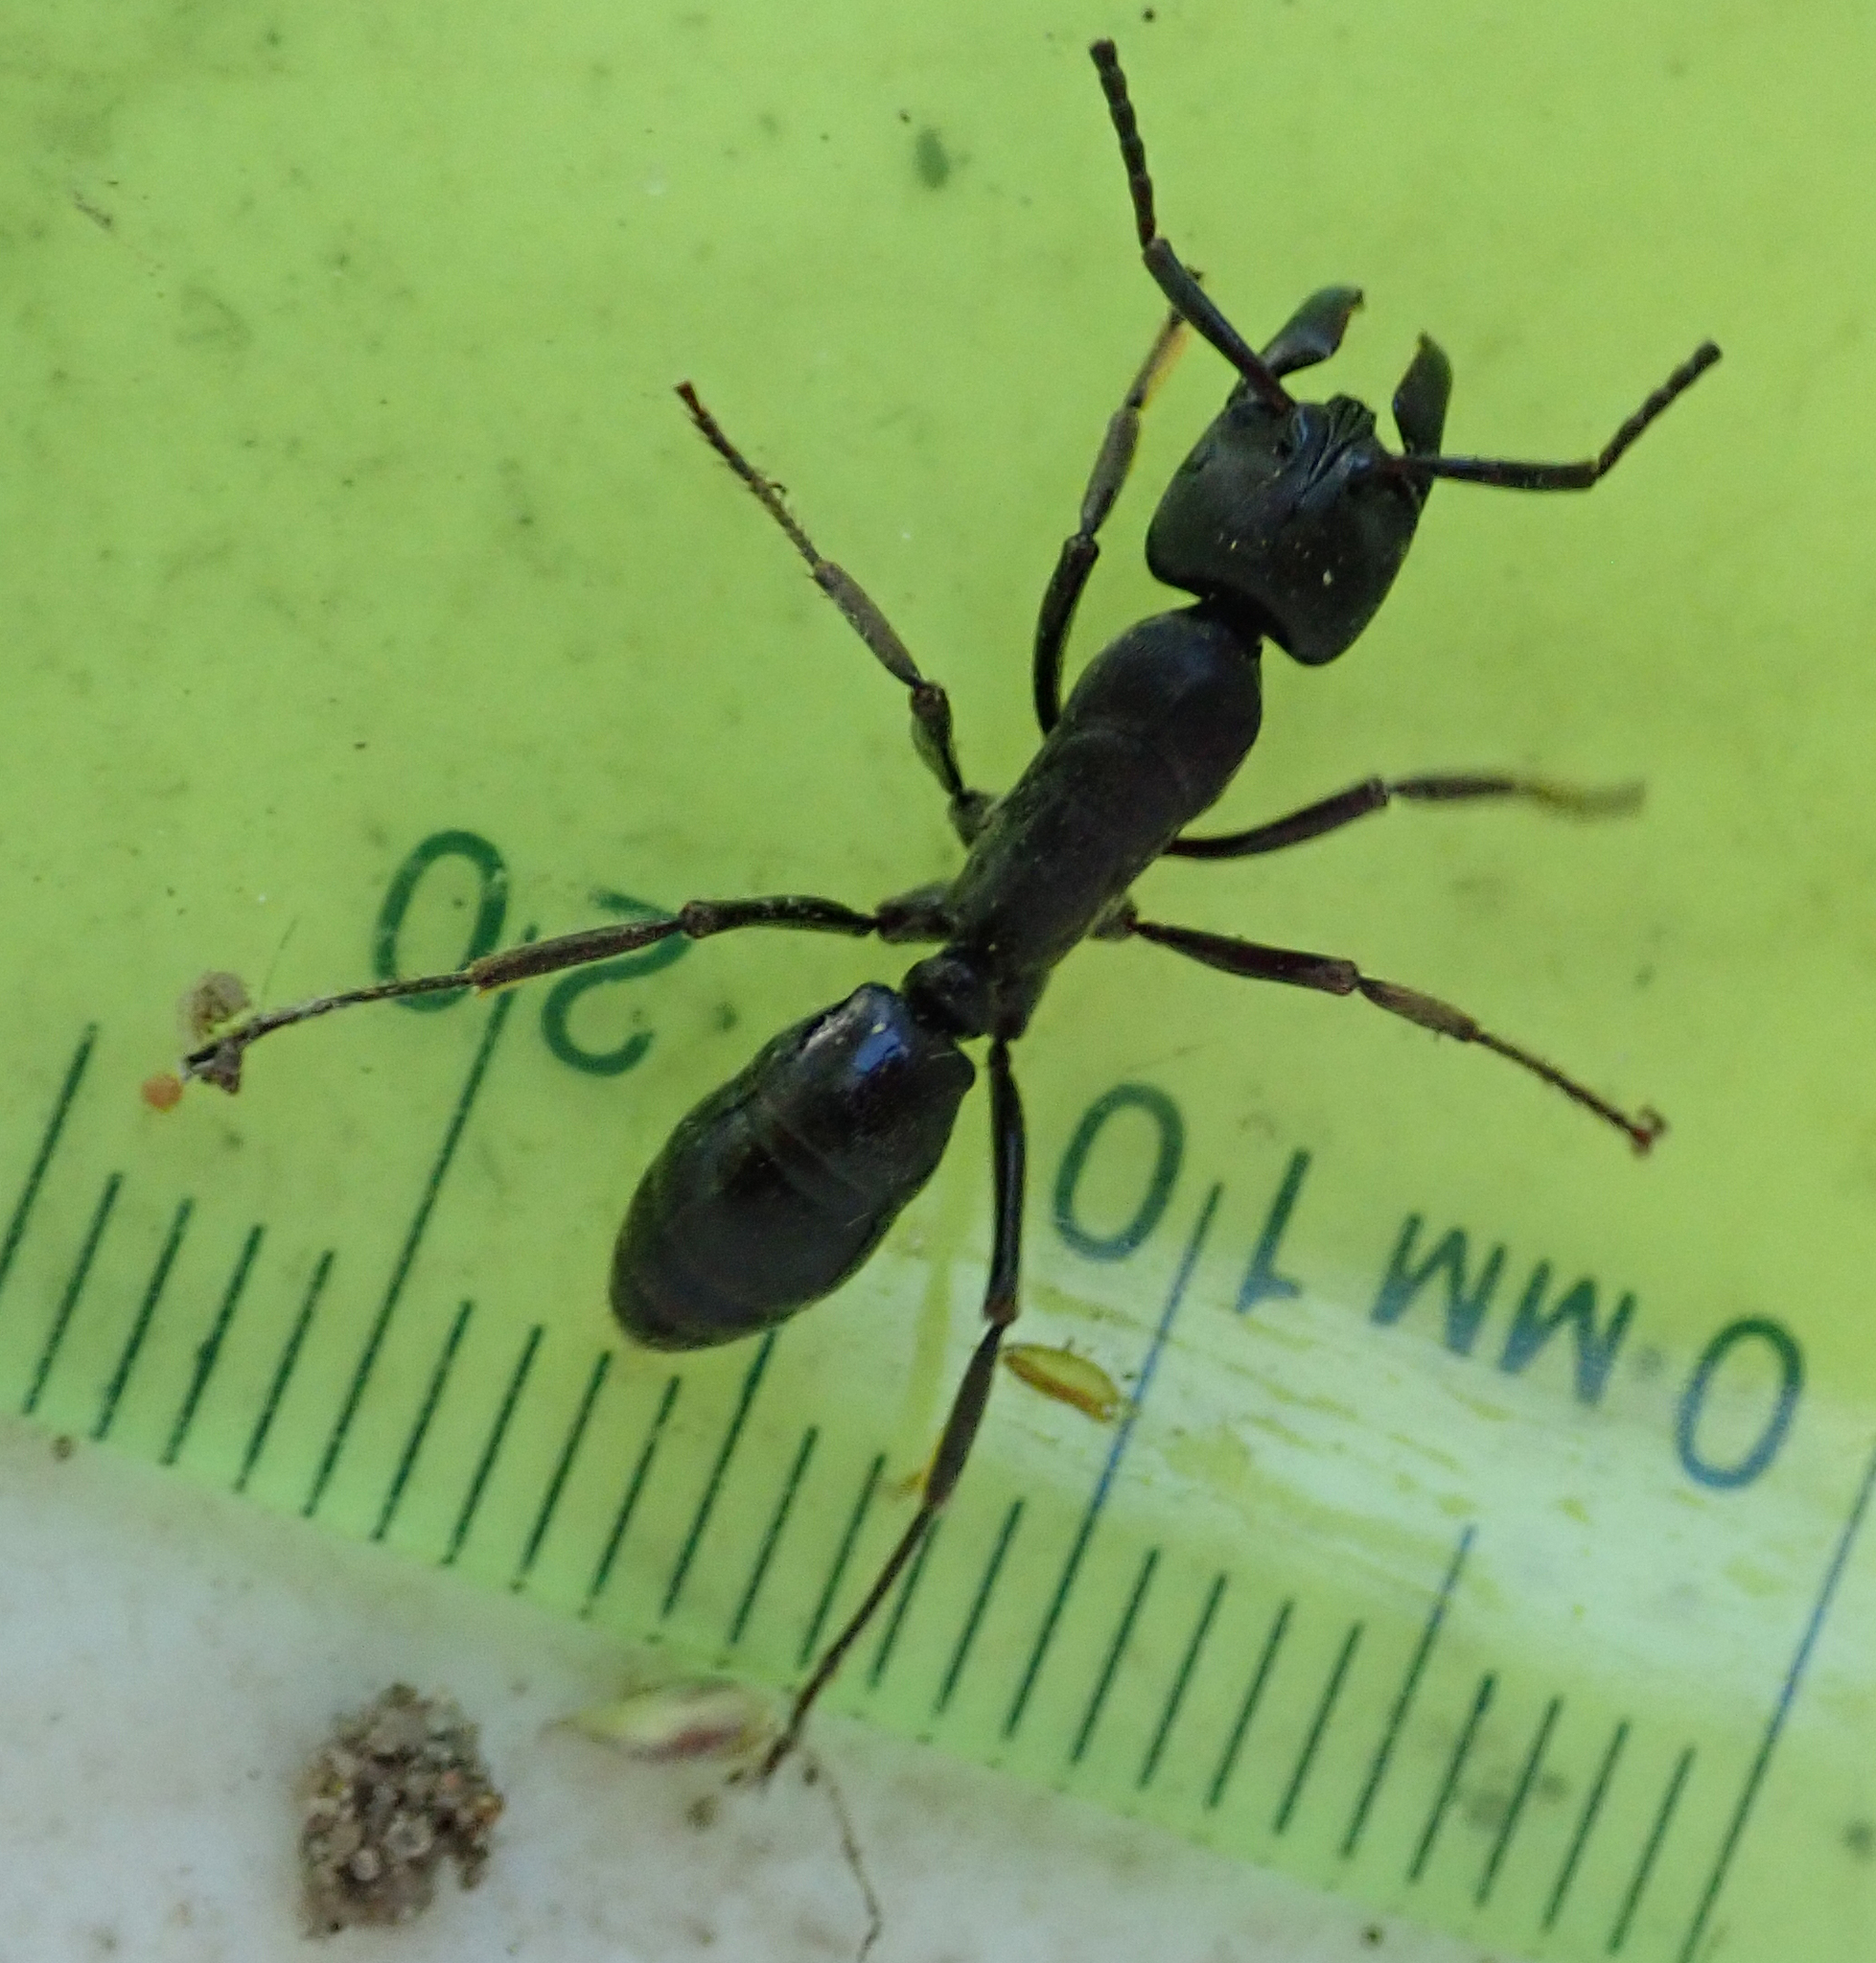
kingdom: Animalia
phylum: Arthropoda
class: Insecta
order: Hymenoptera
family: Formicidae
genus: Paltothyreus
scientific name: Paltothyreus tarsatus
